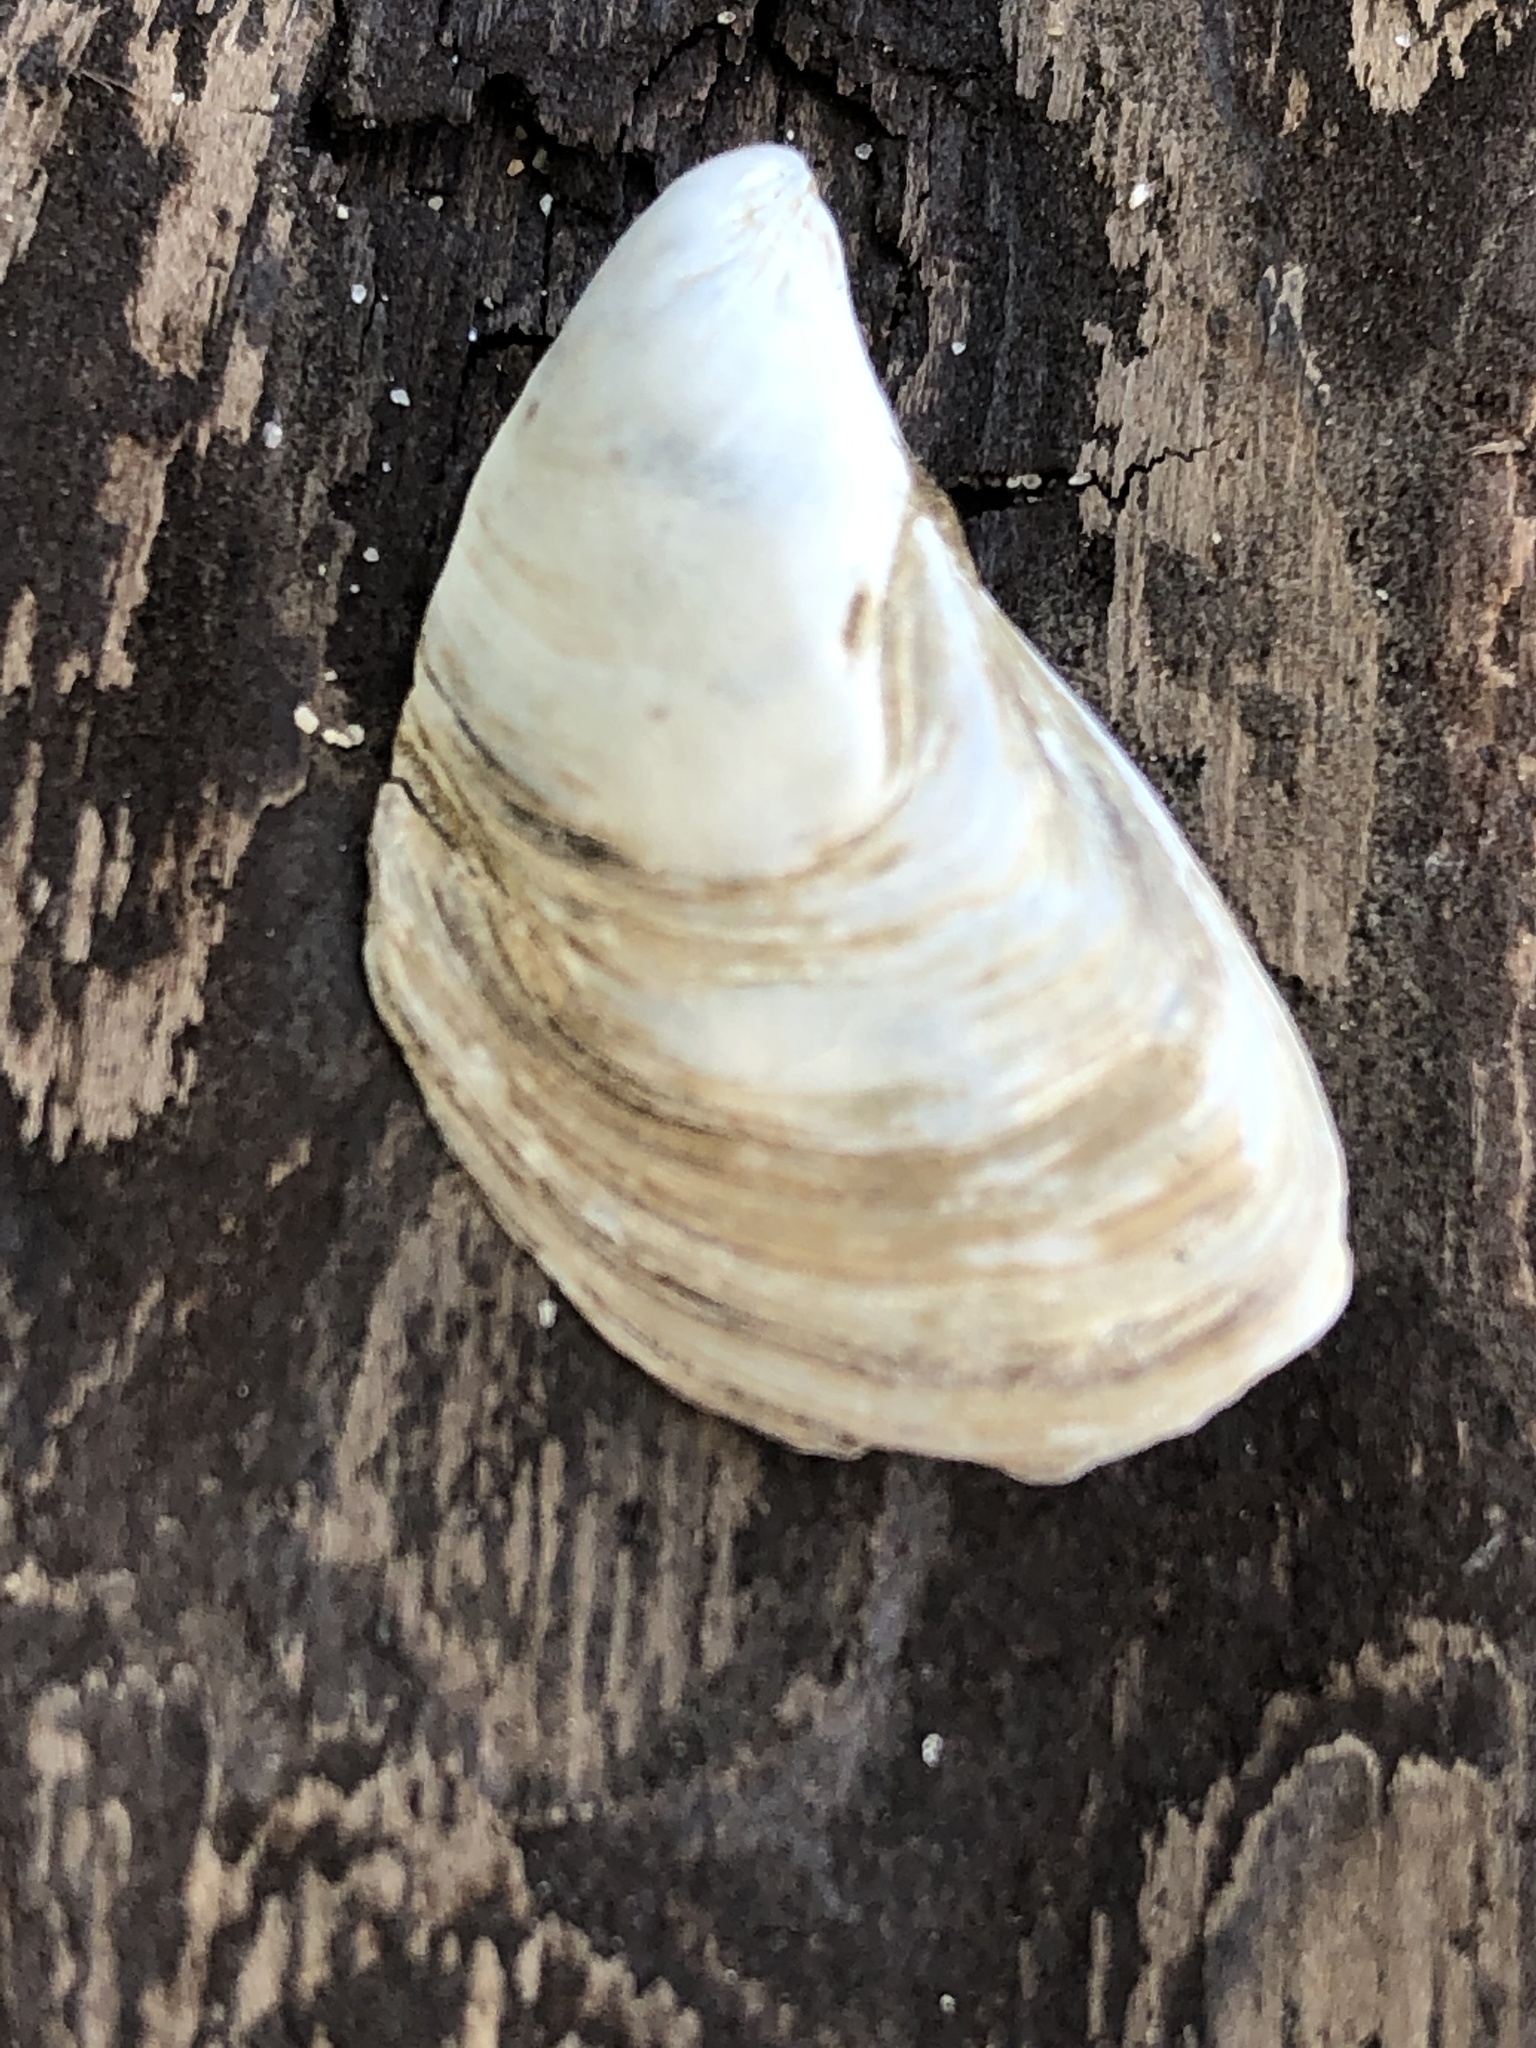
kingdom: Animalia
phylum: Mollusca
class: Bivalvia
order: Myida
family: Dreissenidae
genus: Dreissena
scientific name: Dreissena bugensis
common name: Quagga mussel
